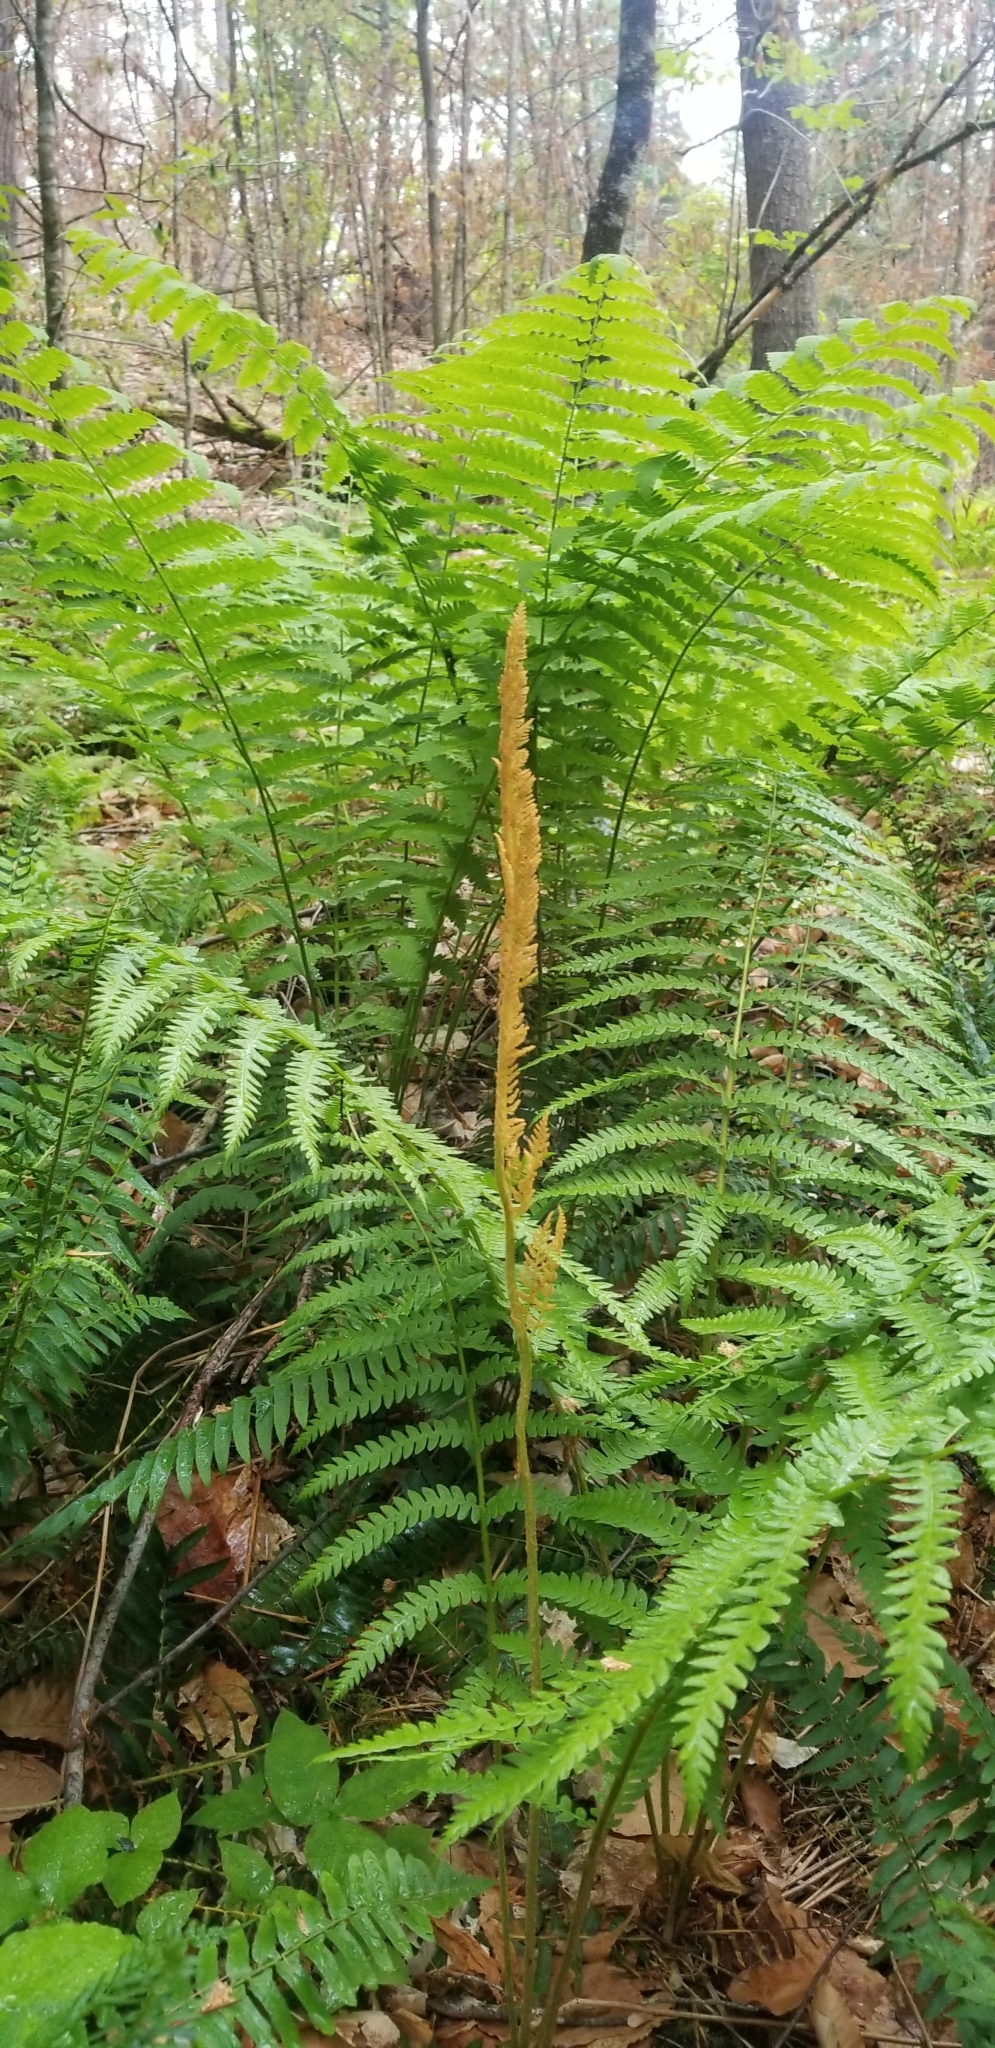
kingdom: Plantae
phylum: Tracheophyta
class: Polypodiopsida
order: Osmundales
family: Osmundaceae
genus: Osmundastrum
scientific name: Osmundastrum cinnamomeum
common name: Cinnamon fern
